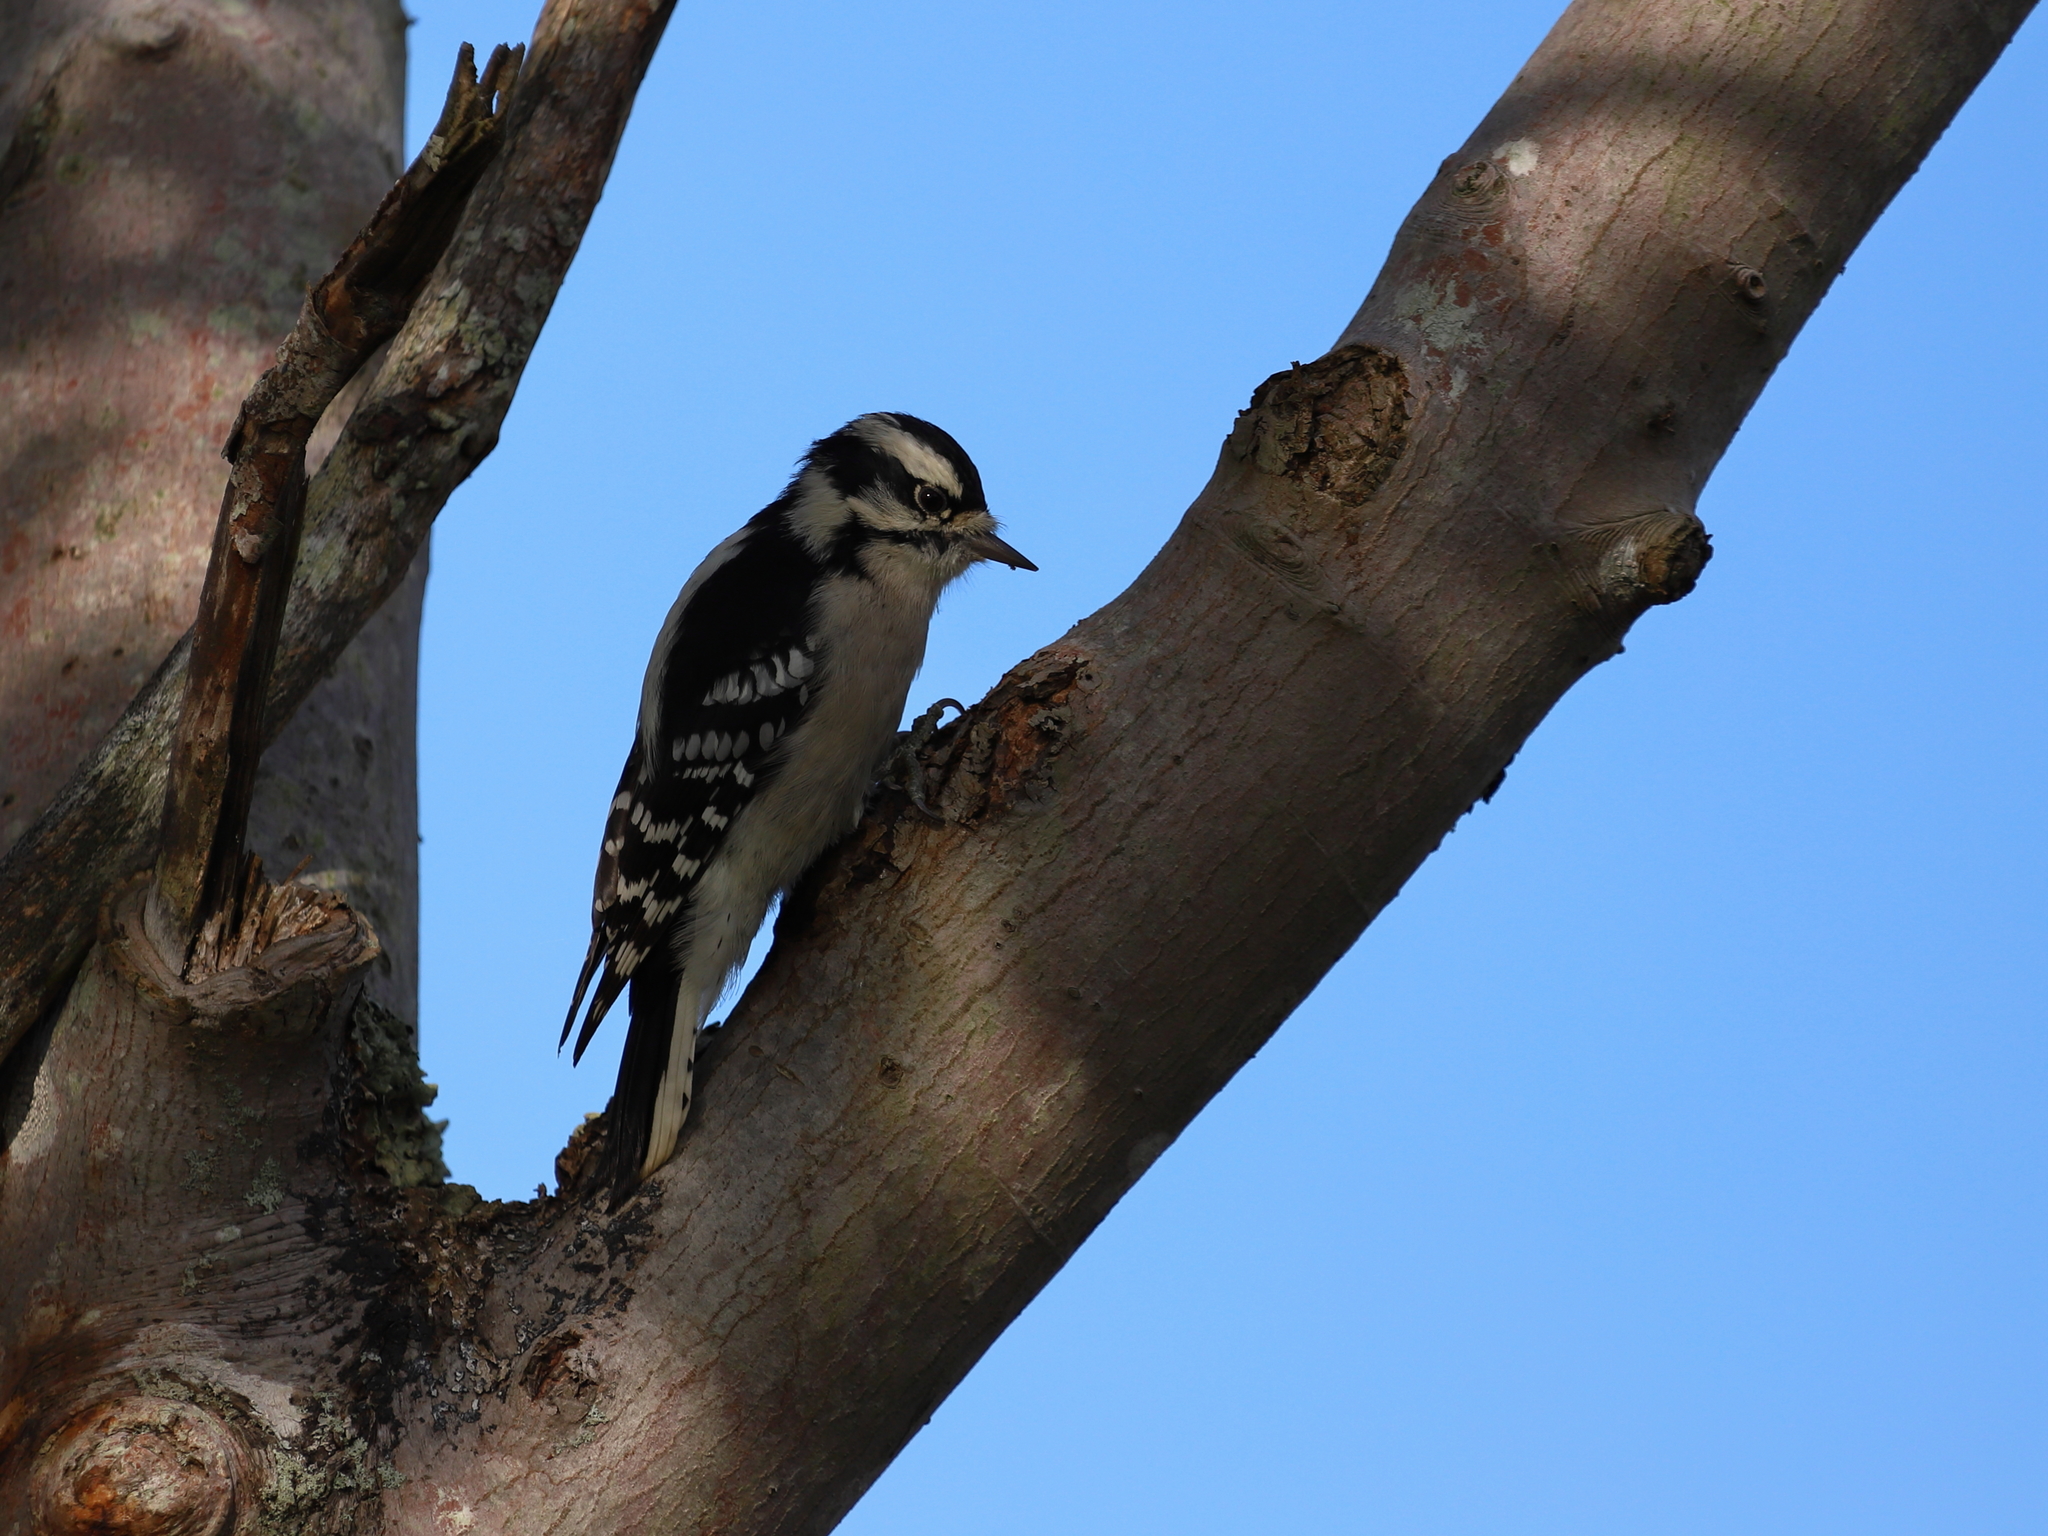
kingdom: Animalia
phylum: Chordata
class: Aves
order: Piciformes
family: Picidae
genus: Dryobates
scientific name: Dryobates pubescens
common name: Downy woodpecker
